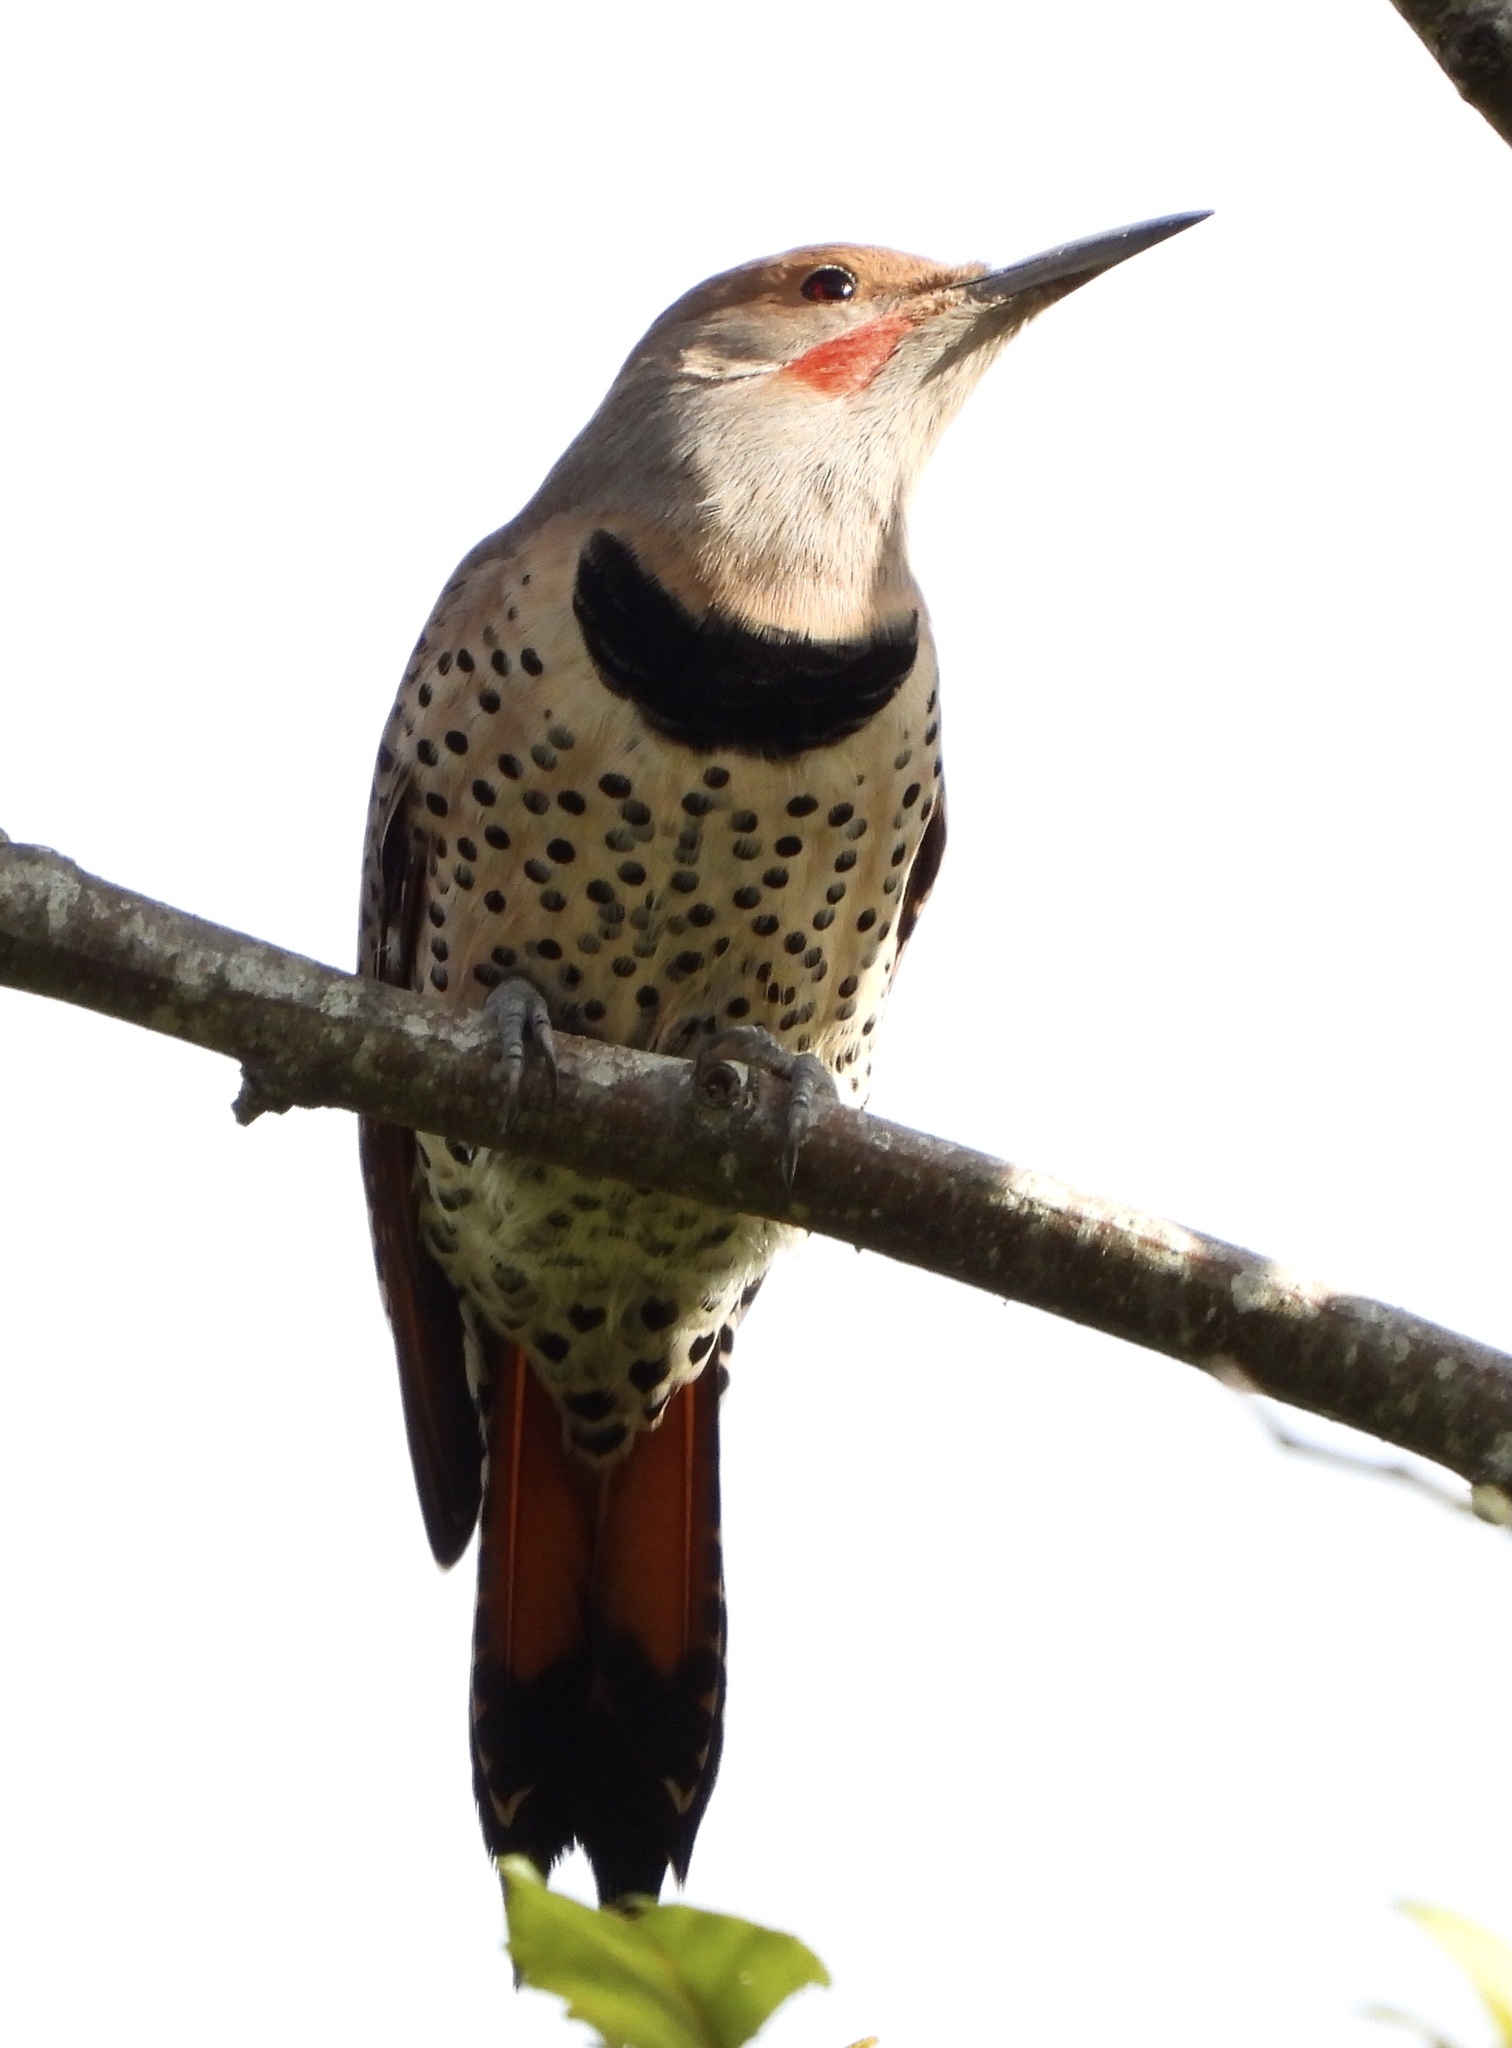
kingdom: Animalia
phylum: Chordata
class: Aves
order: Piciformes
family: Picidae
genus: Colaptes
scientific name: Colaptes auratus
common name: Northern flicker
